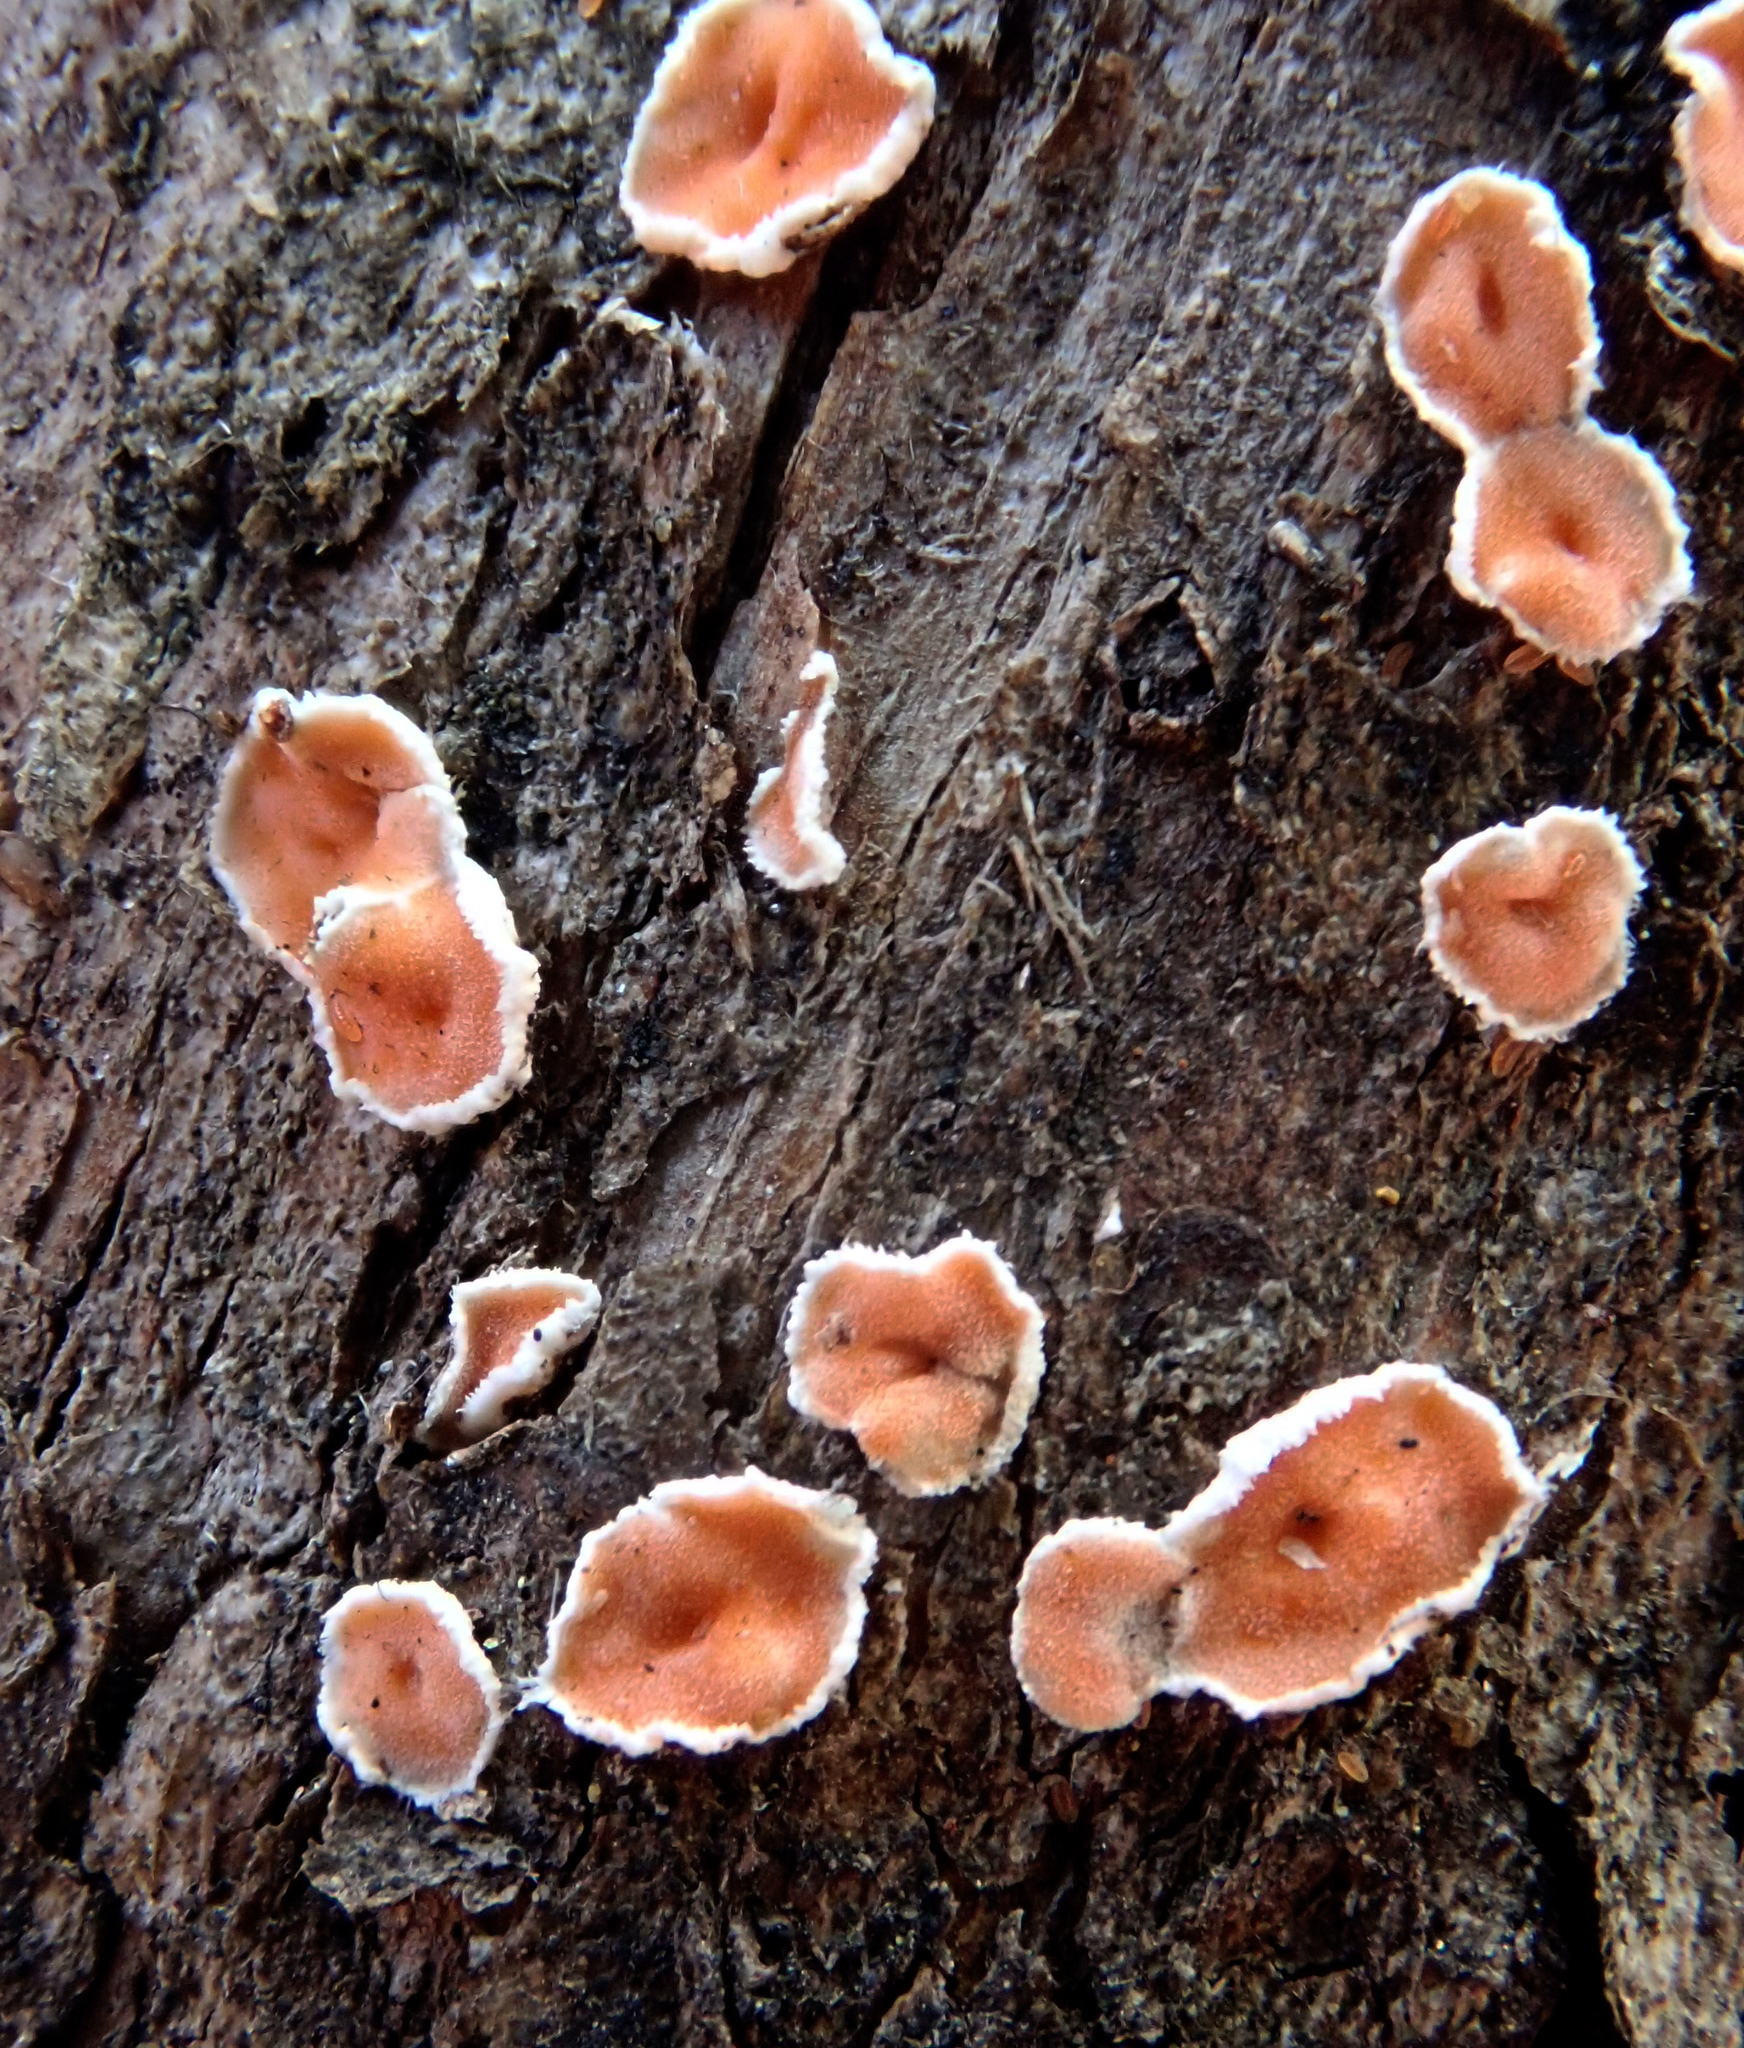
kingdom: Fungi
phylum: Basidiomycota
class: Agaricomycetes
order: Russulales
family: Stereaceae
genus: Aleurodiscus
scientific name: Aleurodiscus ochraceoflavus
